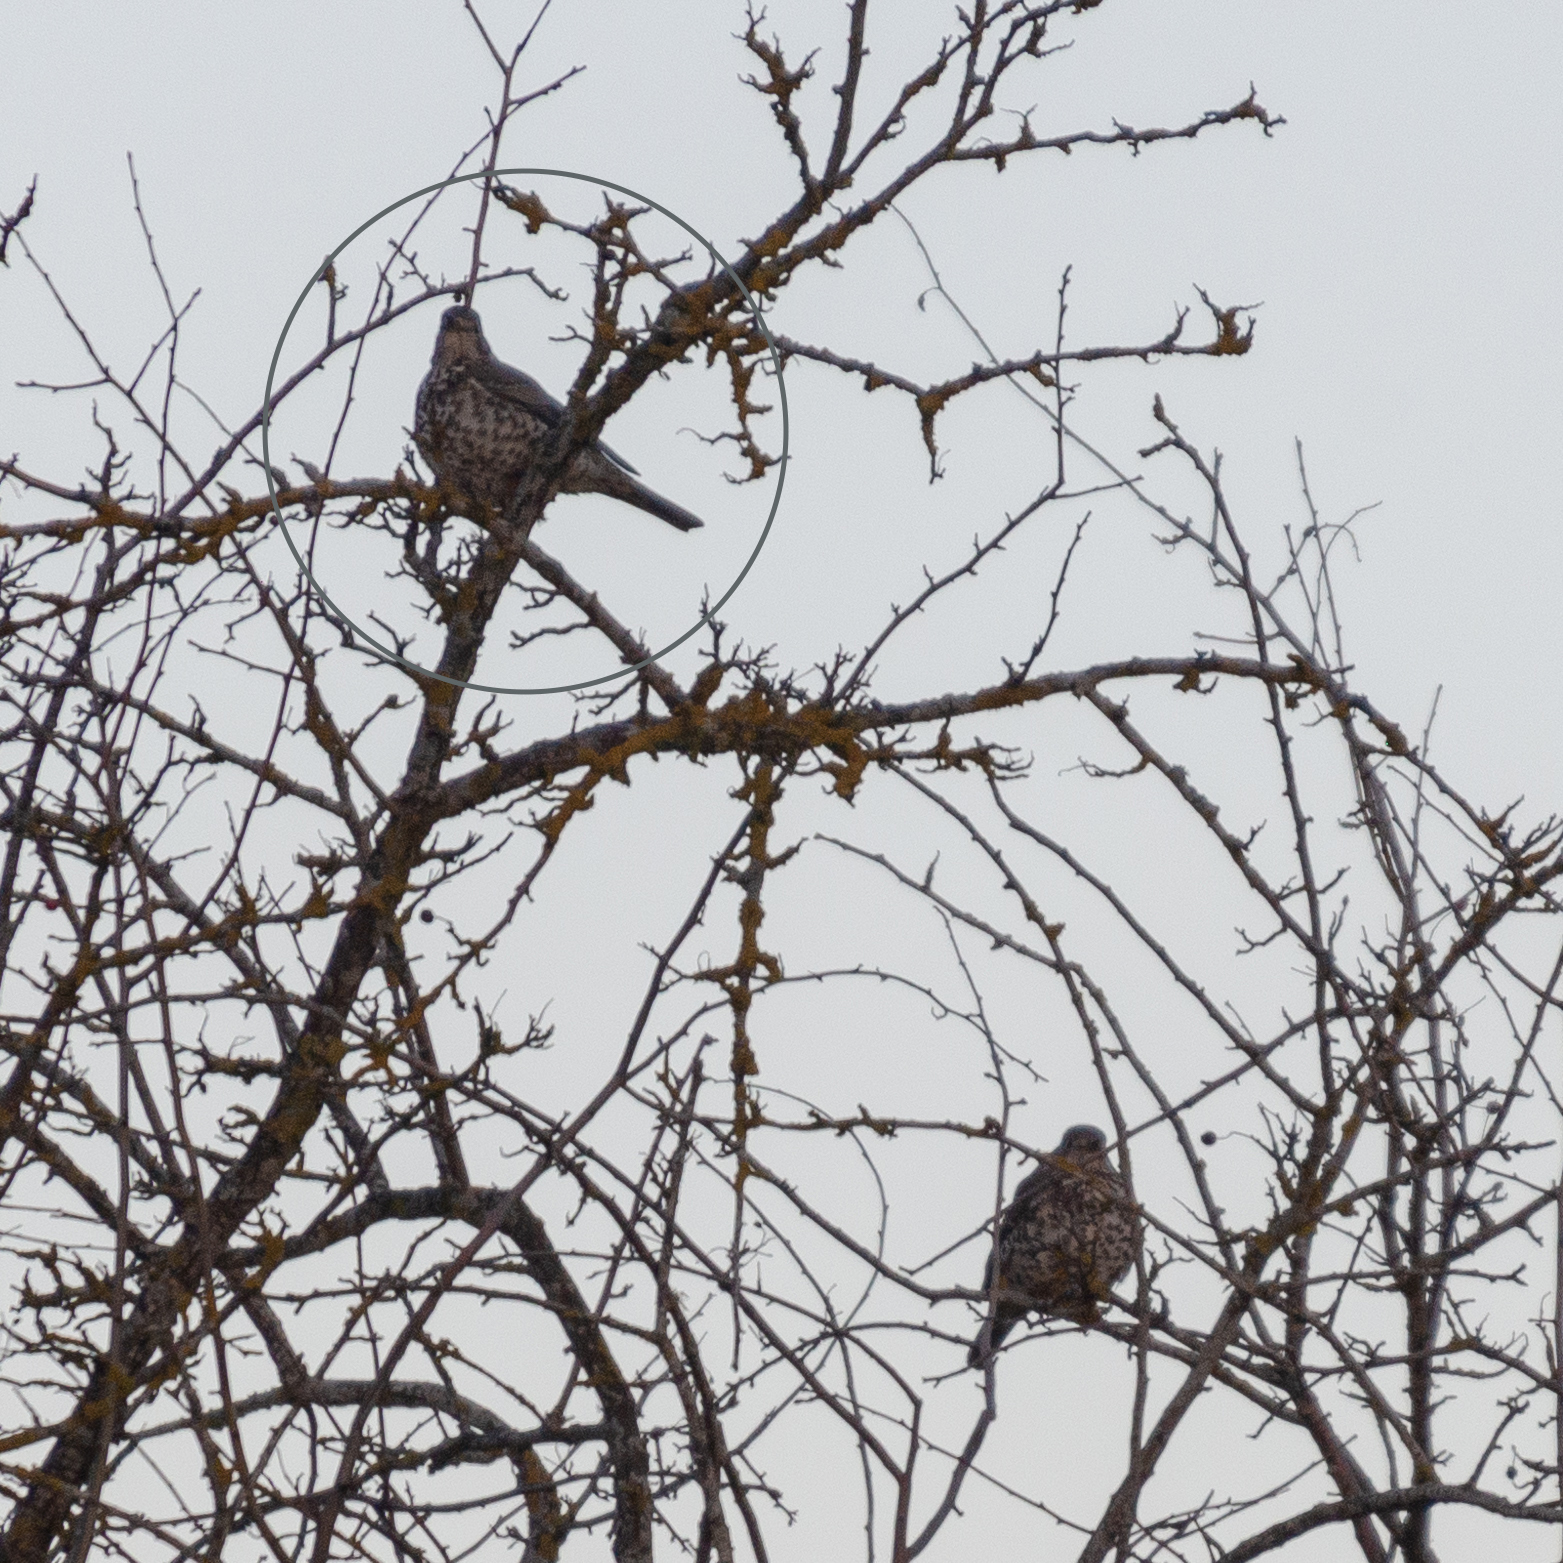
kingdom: Animalia
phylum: Chordata
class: Aves
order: Passeriformes
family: Turdidae
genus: Turdus
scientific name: Turdus viscivorus
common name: Mistle thrush
